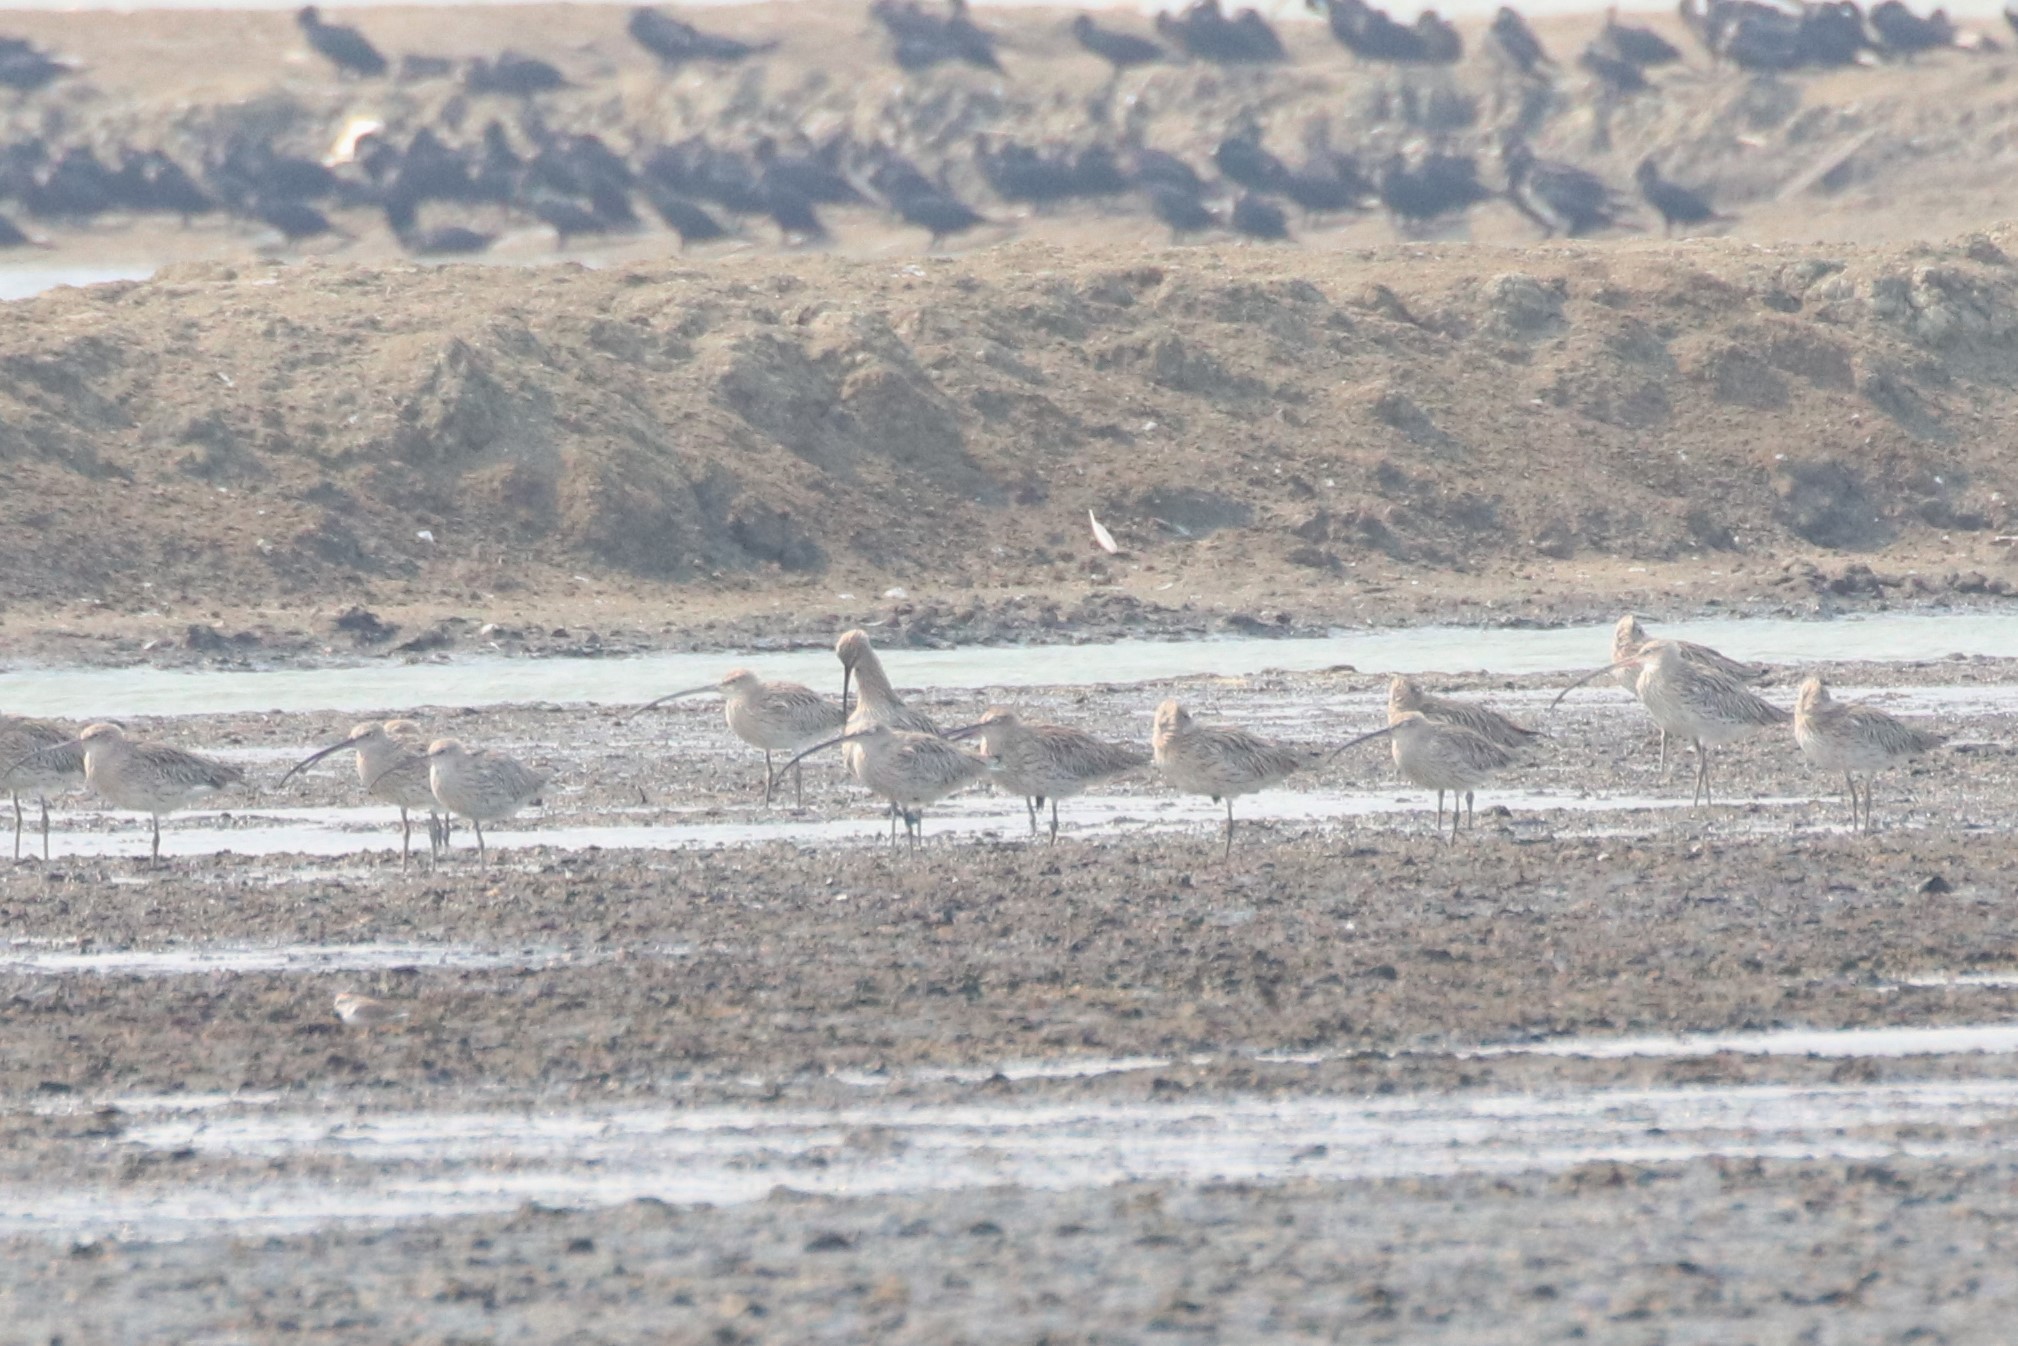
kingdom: Animalia
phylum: Chordata
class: Aves
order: Charadriiformes
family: Scolopacidae
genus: Numenius
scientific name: Numenius arquata
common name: Eurasian curlew
